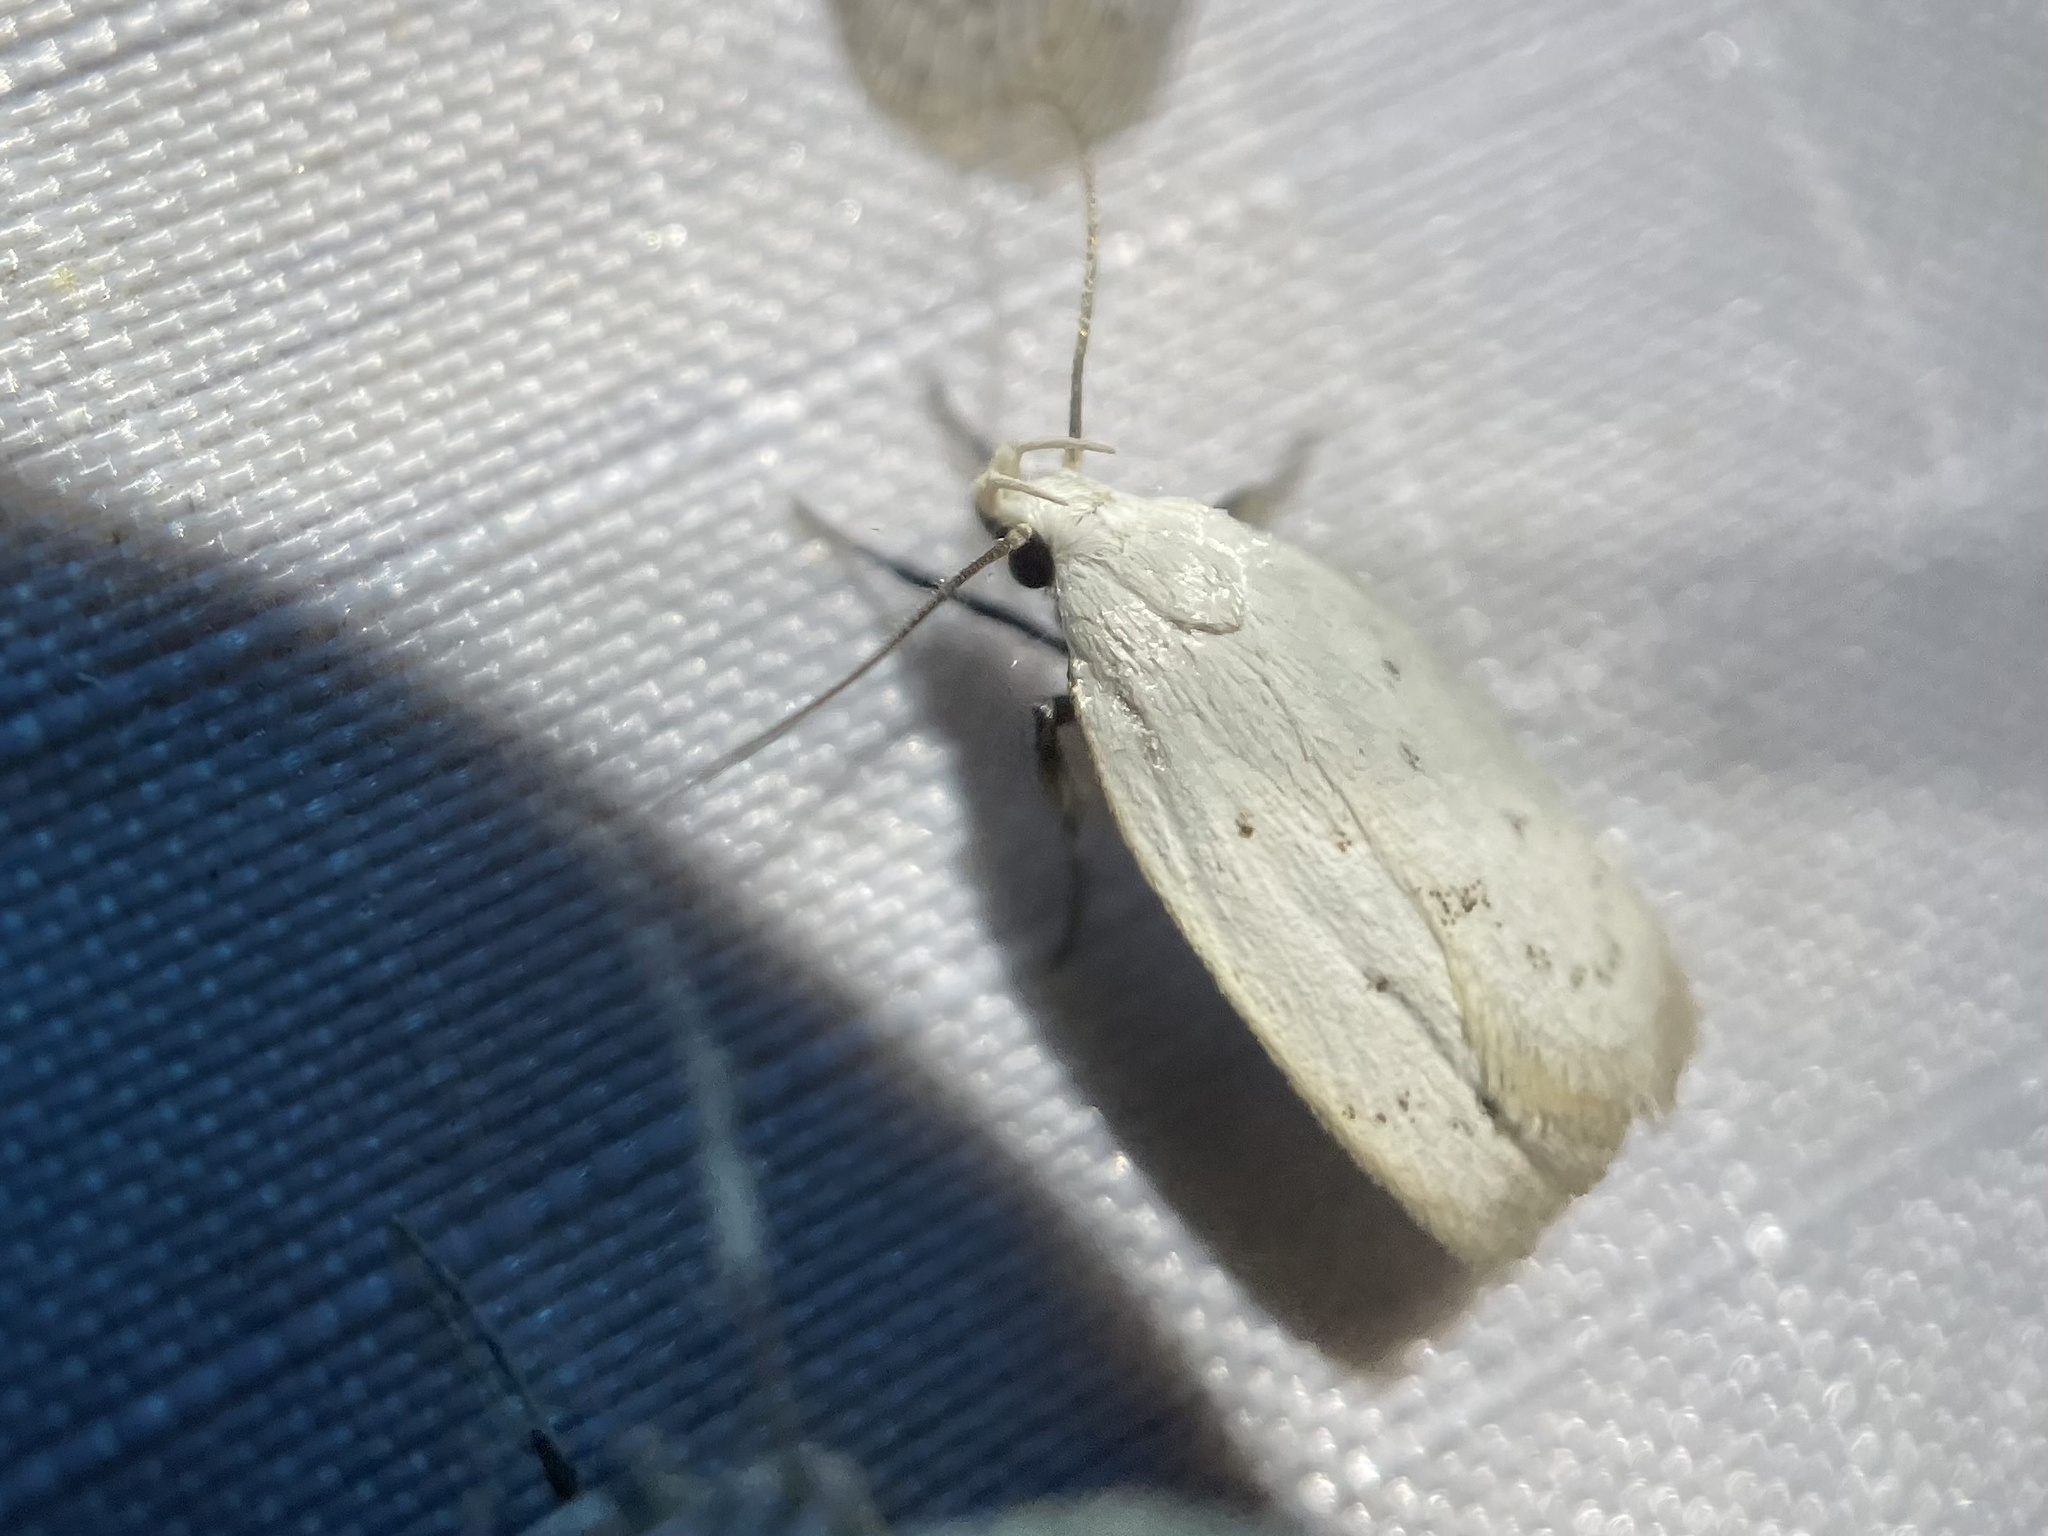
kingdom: Animalia
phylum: Arthropoda
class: Insecta
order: Lepidoptera
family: Oecophoridae
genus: Inga
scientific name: Inga cretacea
